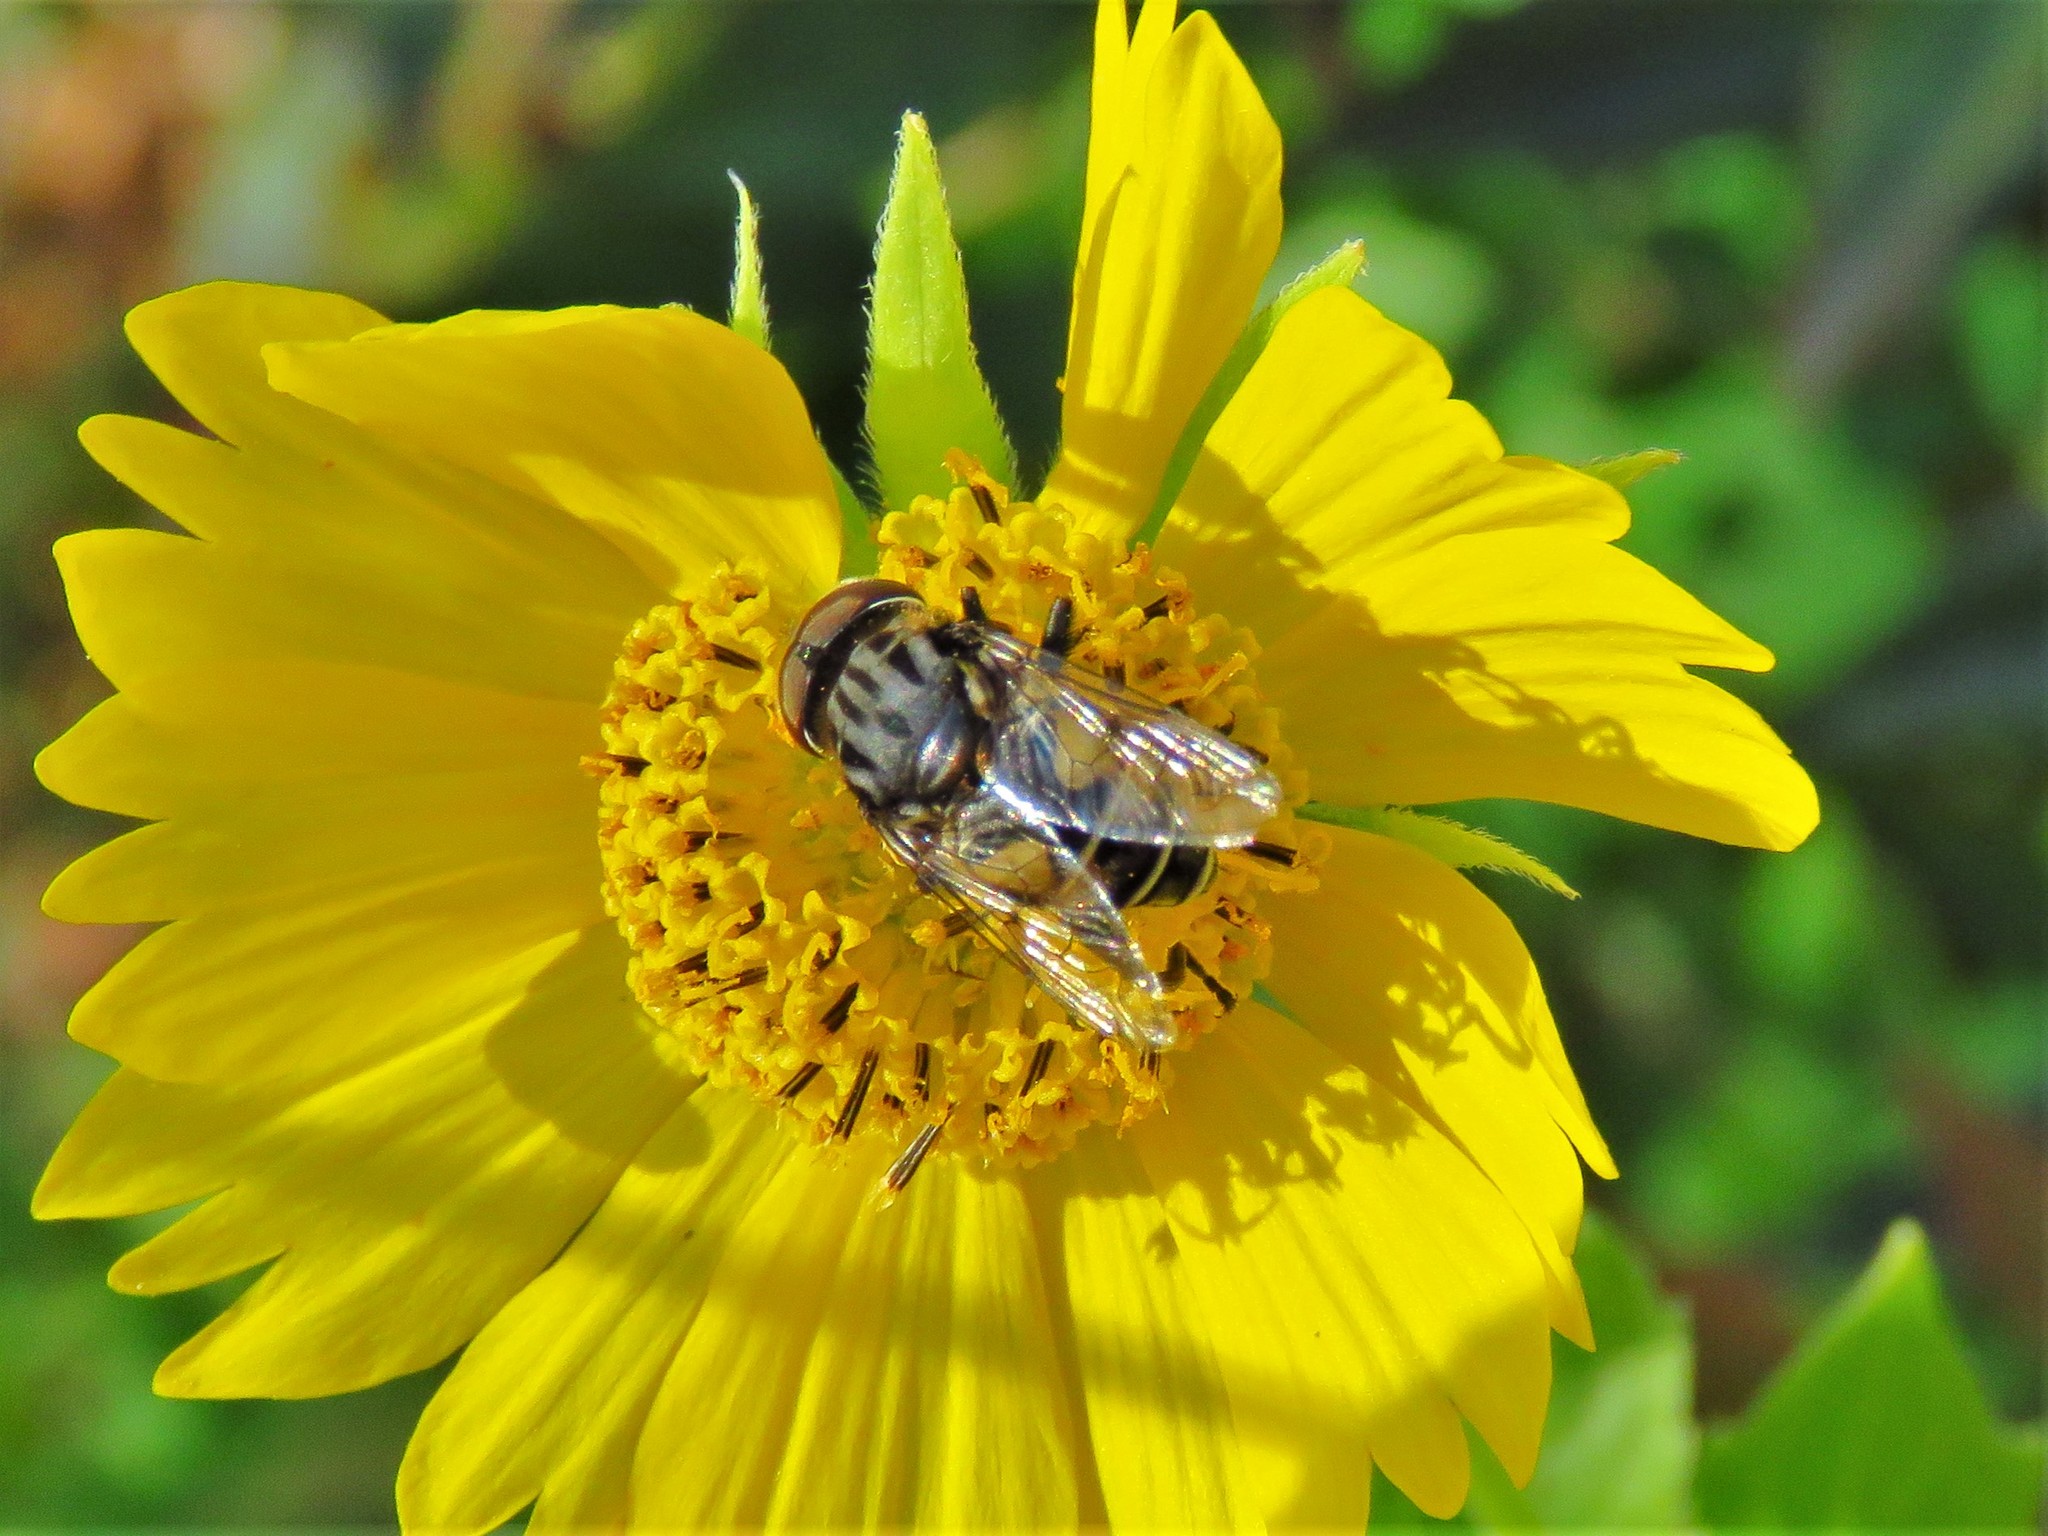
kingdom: Animalia
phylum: Arthropoda
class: Insecta
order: Diptera
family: Syrphidae
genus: Palpada
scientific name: Palpada furcata
